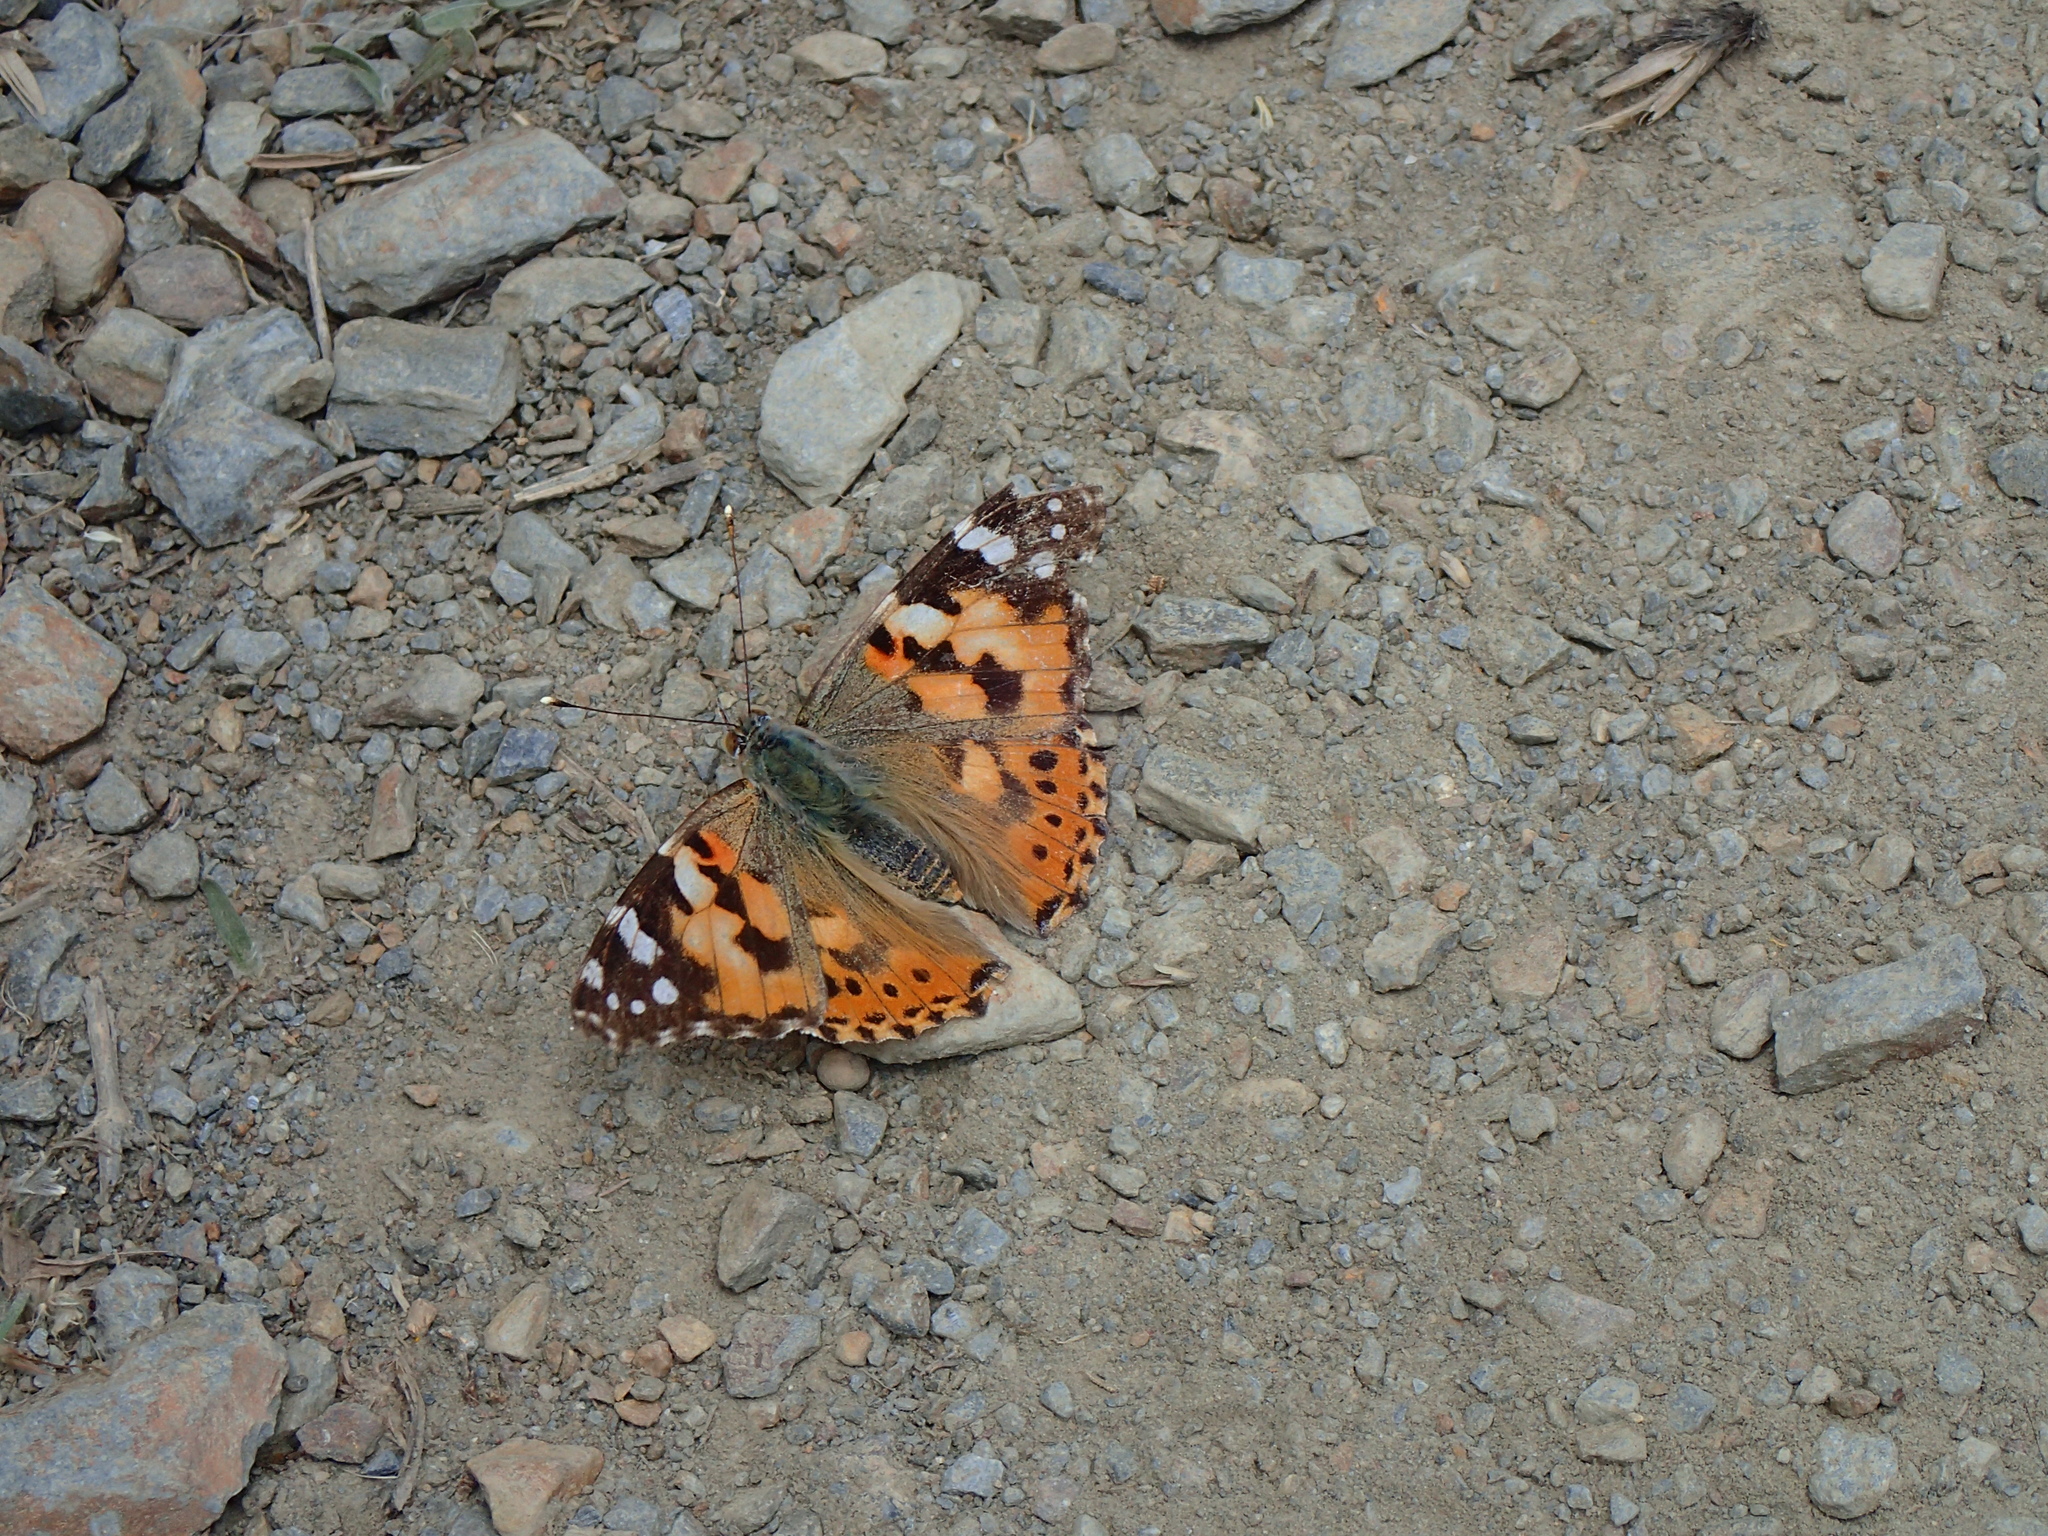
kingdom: Animalia
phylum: Arthropoda
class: Insecta
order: Lepidoptera
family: Nymphalidae
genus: Vanessa
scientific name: Vanessa cardui
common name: Painted lady
